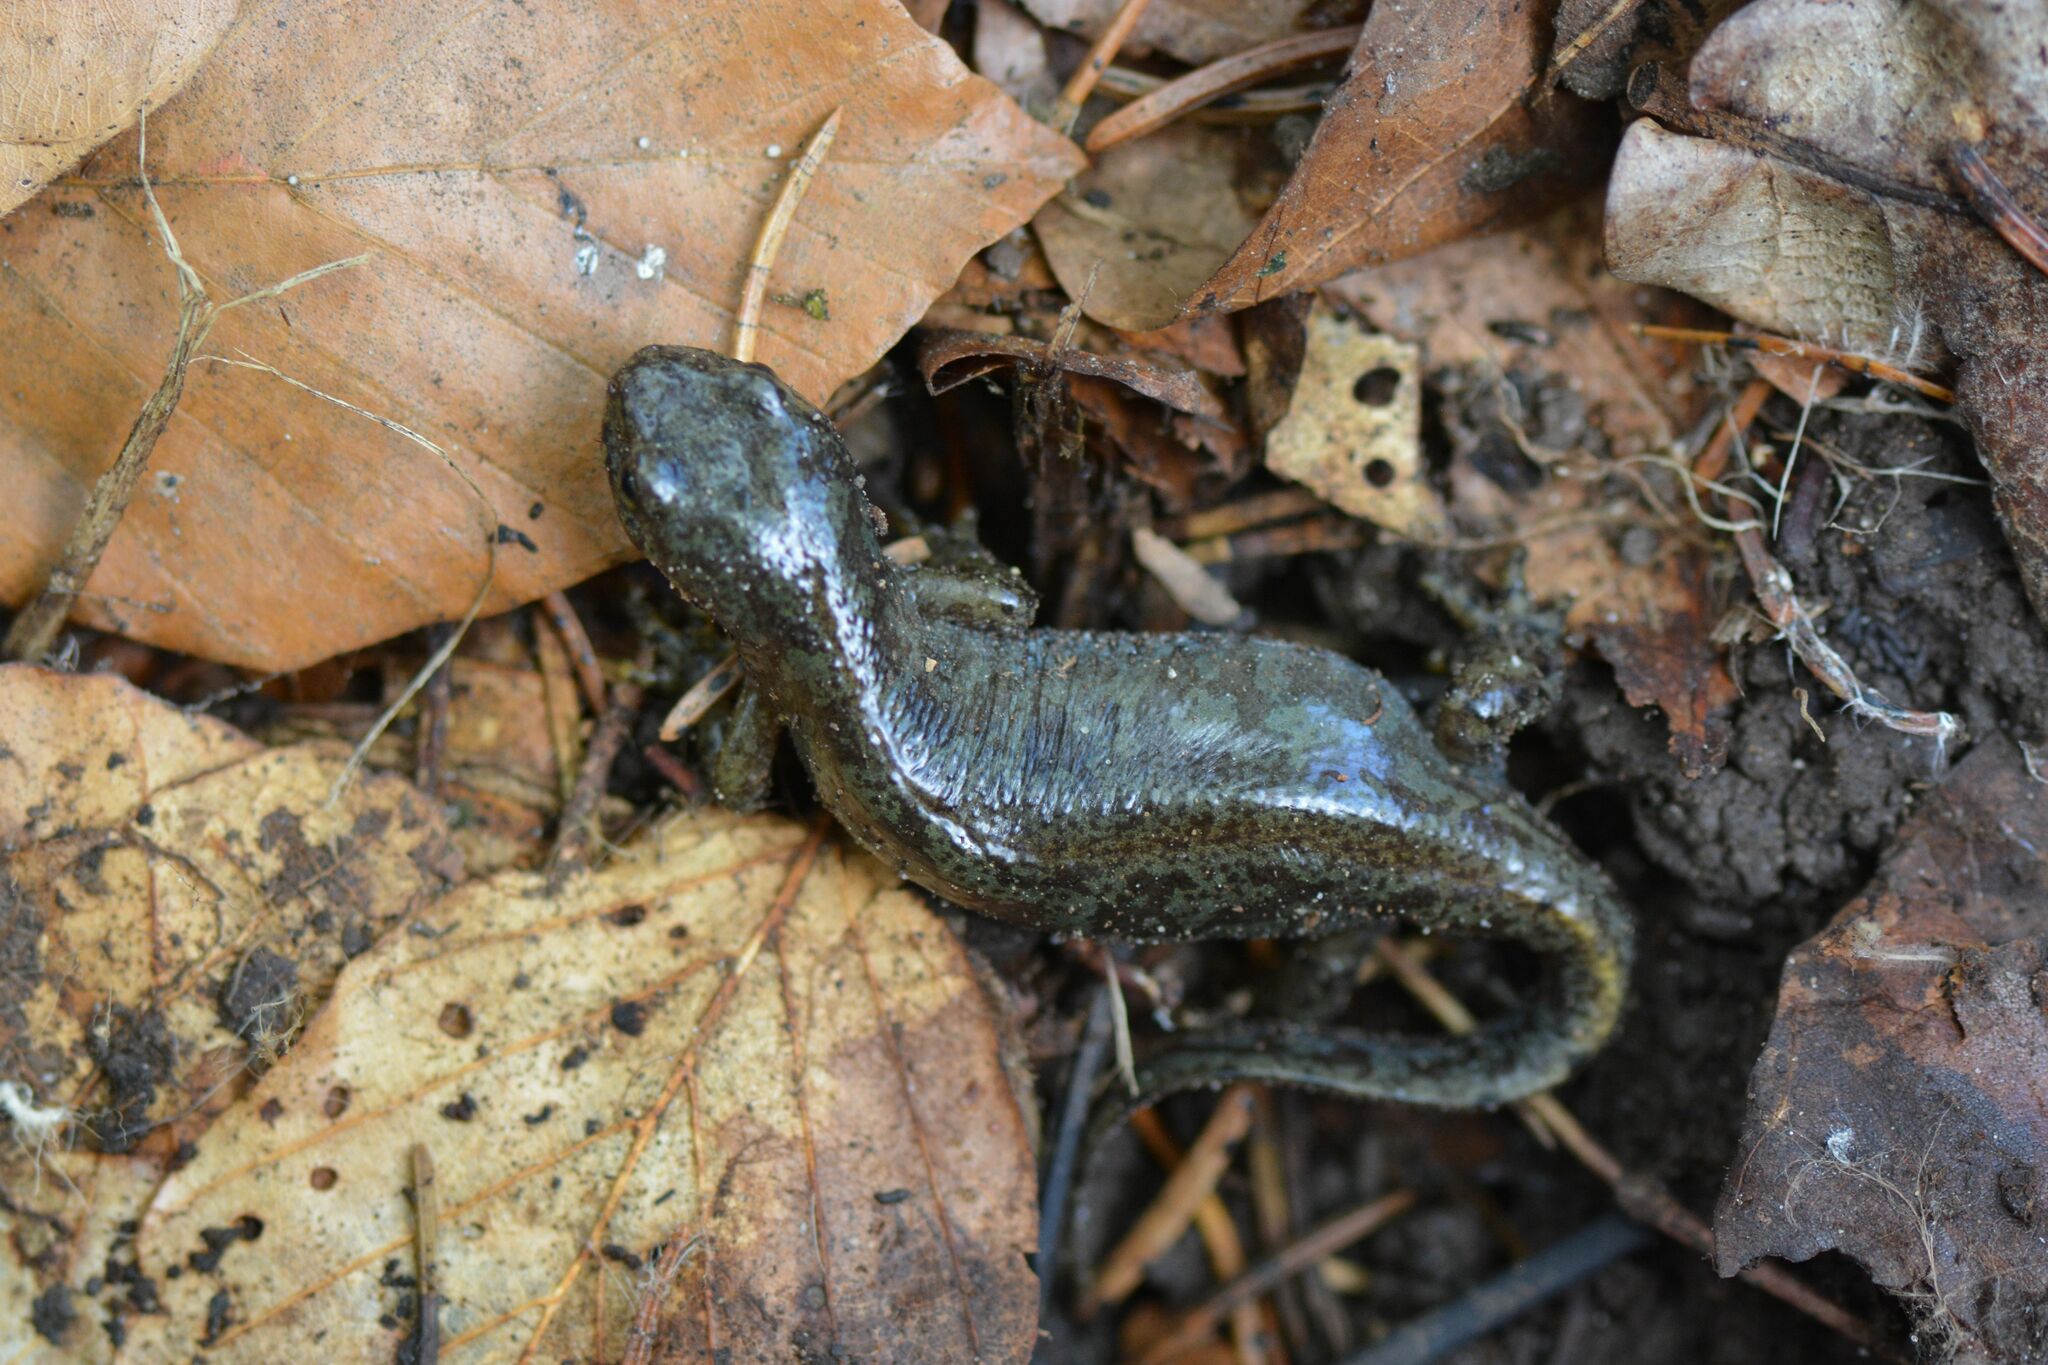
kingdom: Animalia
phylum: Chordata
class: Amphibia
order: Caudata
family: Salamandridae
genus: Ichthyosaura
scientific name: Ichthyosaura alpestris
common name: Alpine newt
